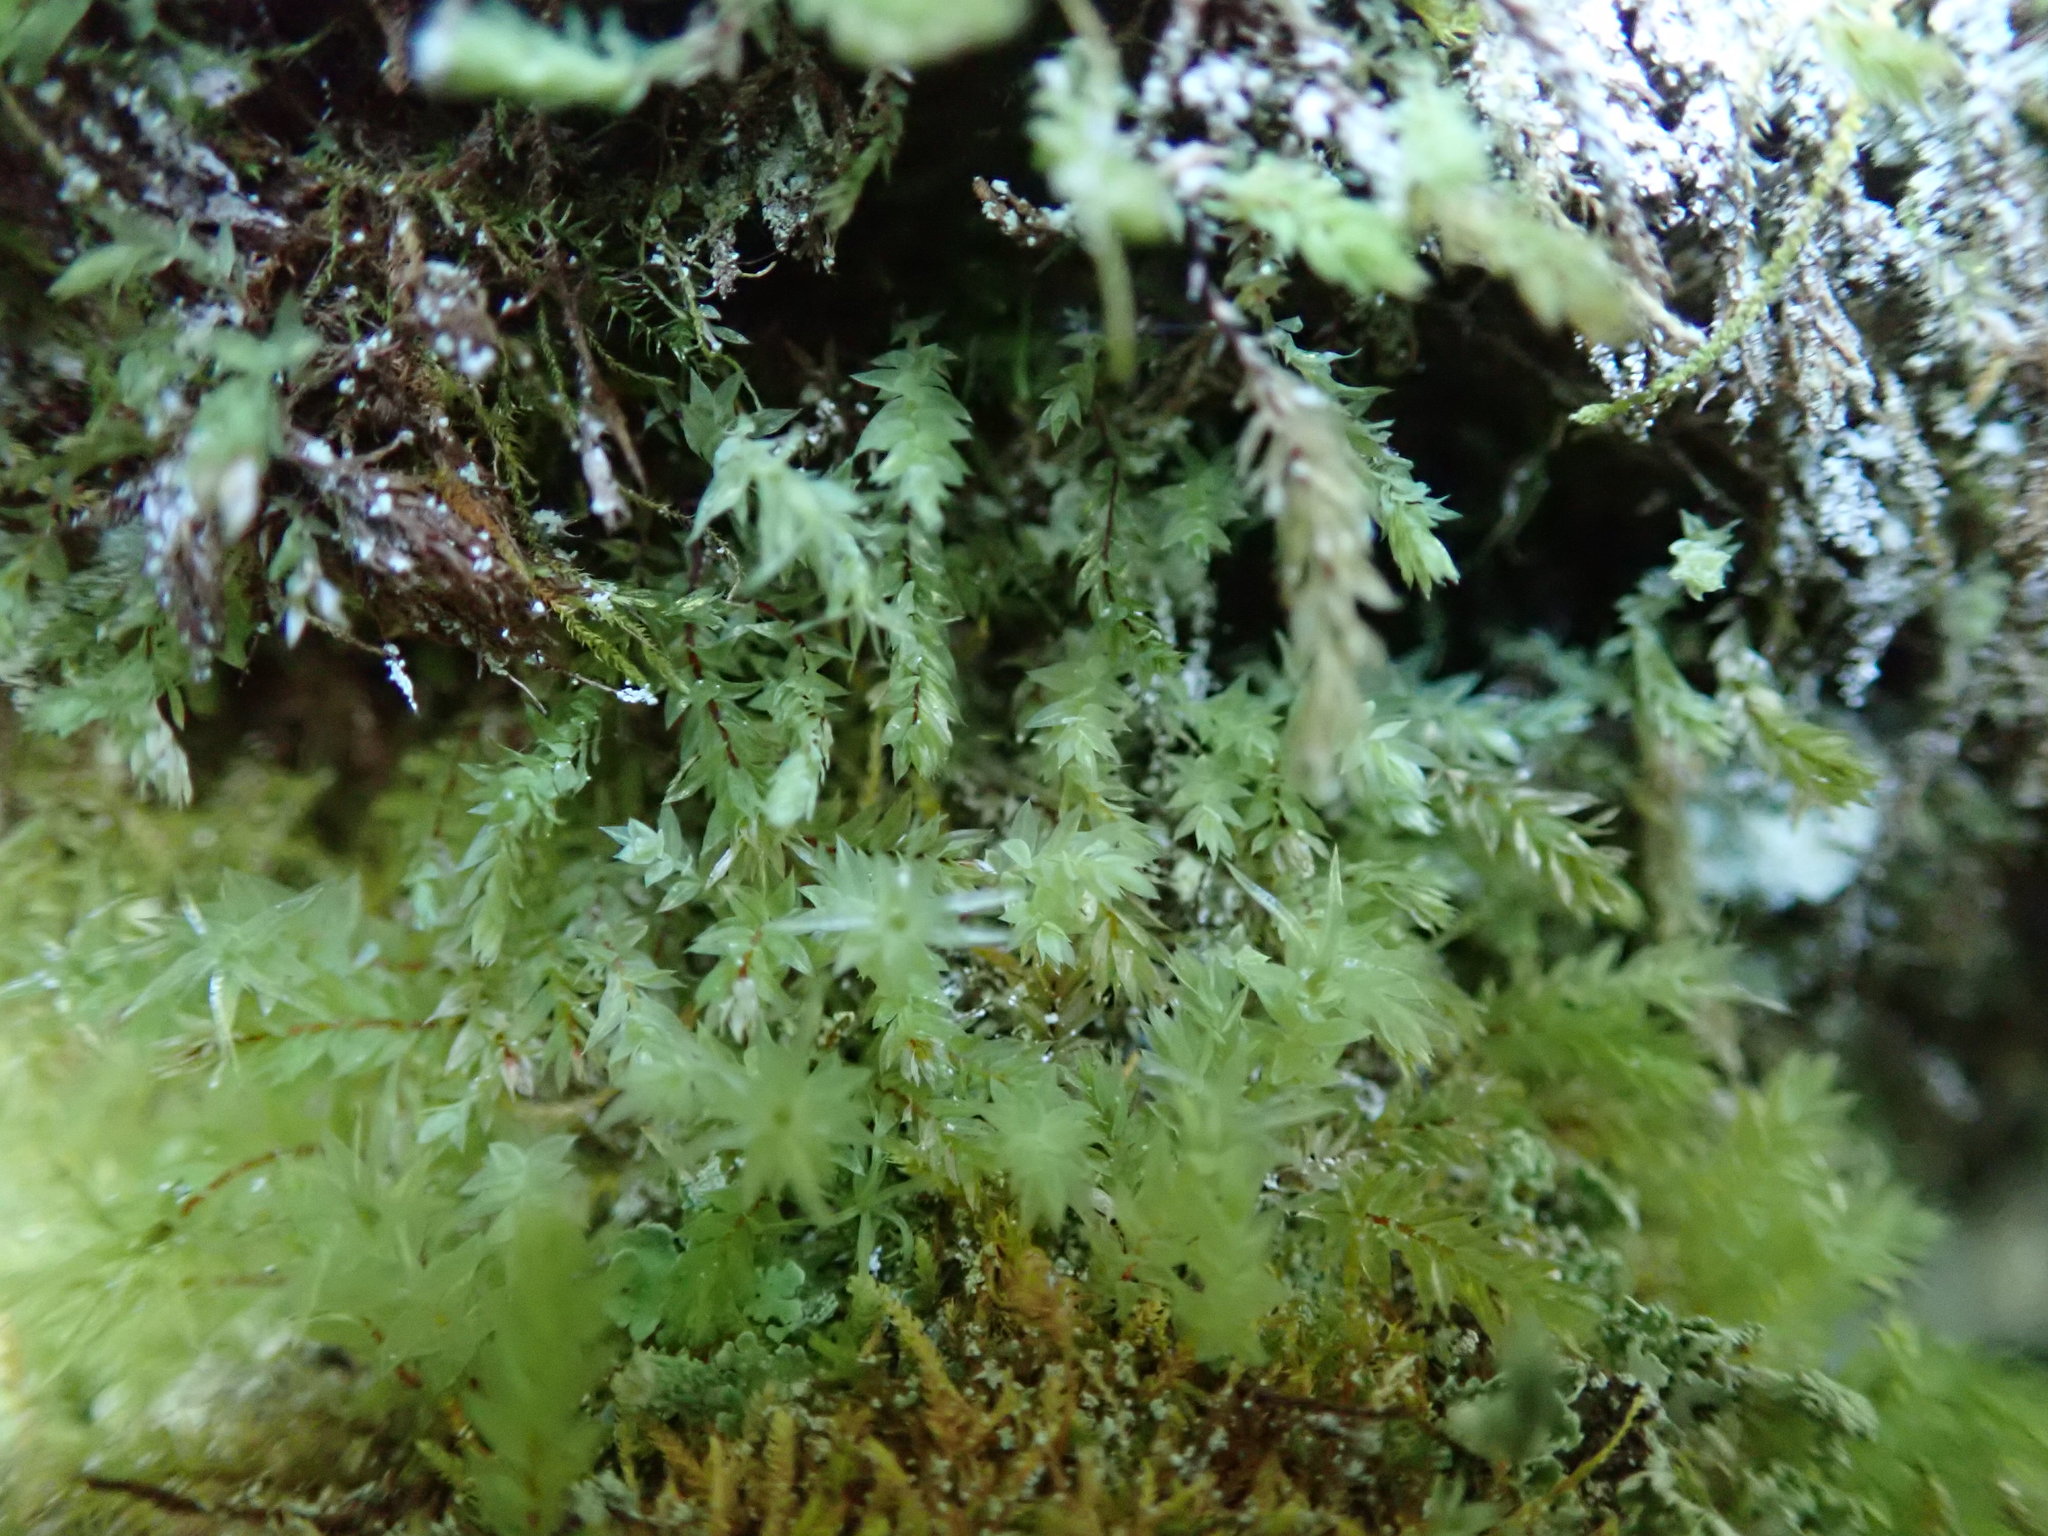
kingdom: Plantae
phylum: Bryophyta
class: Bryopsida
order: Bryales
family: Mniaceae
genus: Pohlia
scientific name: Pohlia cruda
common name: Opal nodding moss
